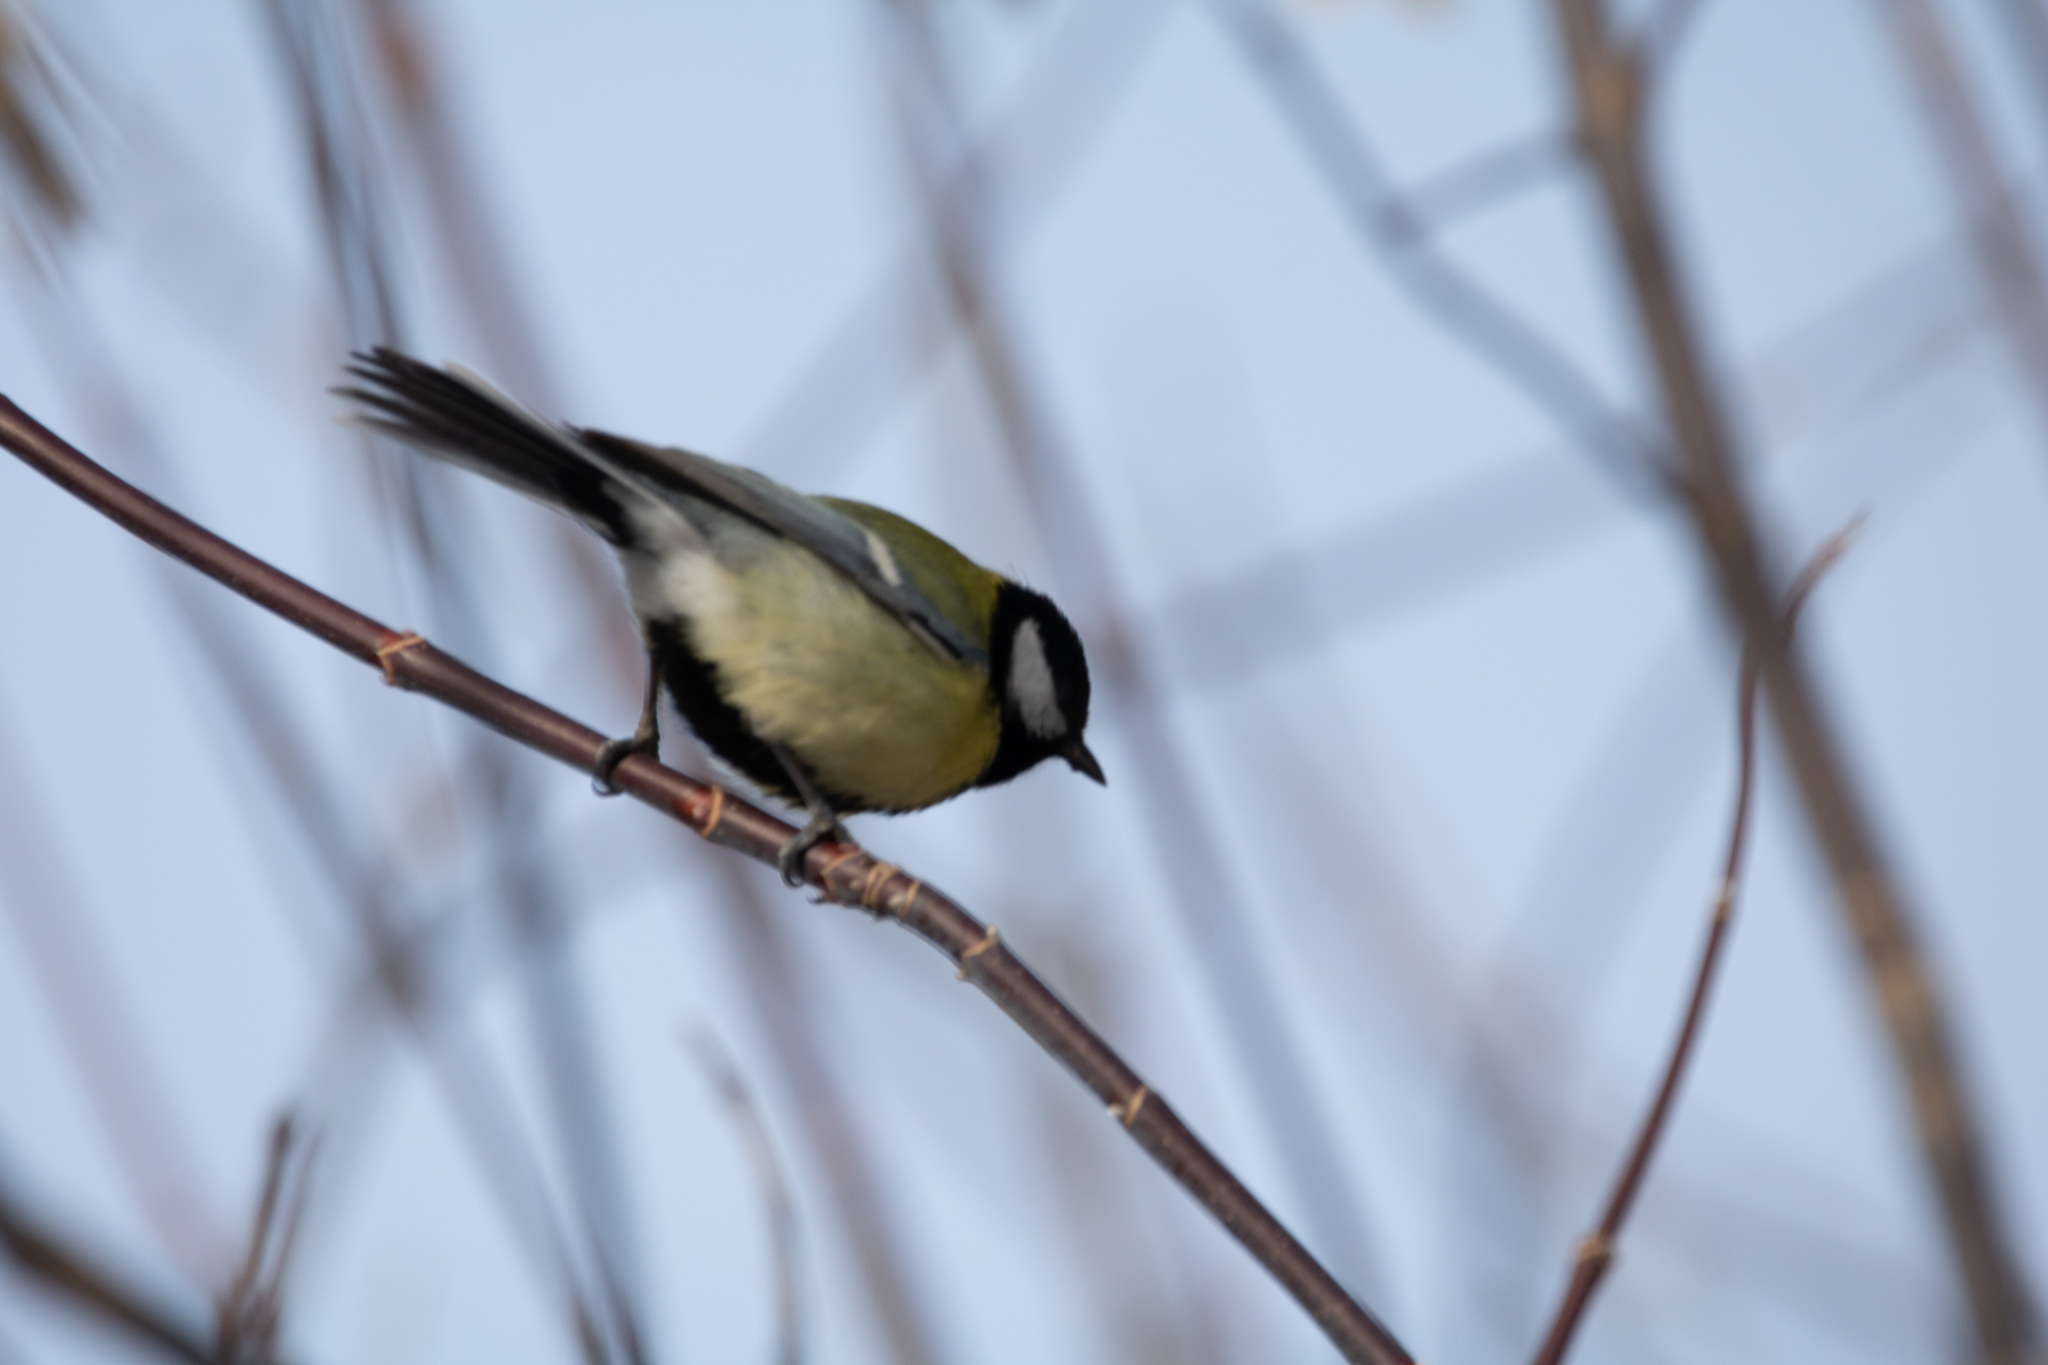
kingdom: Animalia
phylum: Chordata
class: Aves
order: Passeriformes
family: Paridae
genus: Parus
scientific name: Parus major
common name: Great tit
